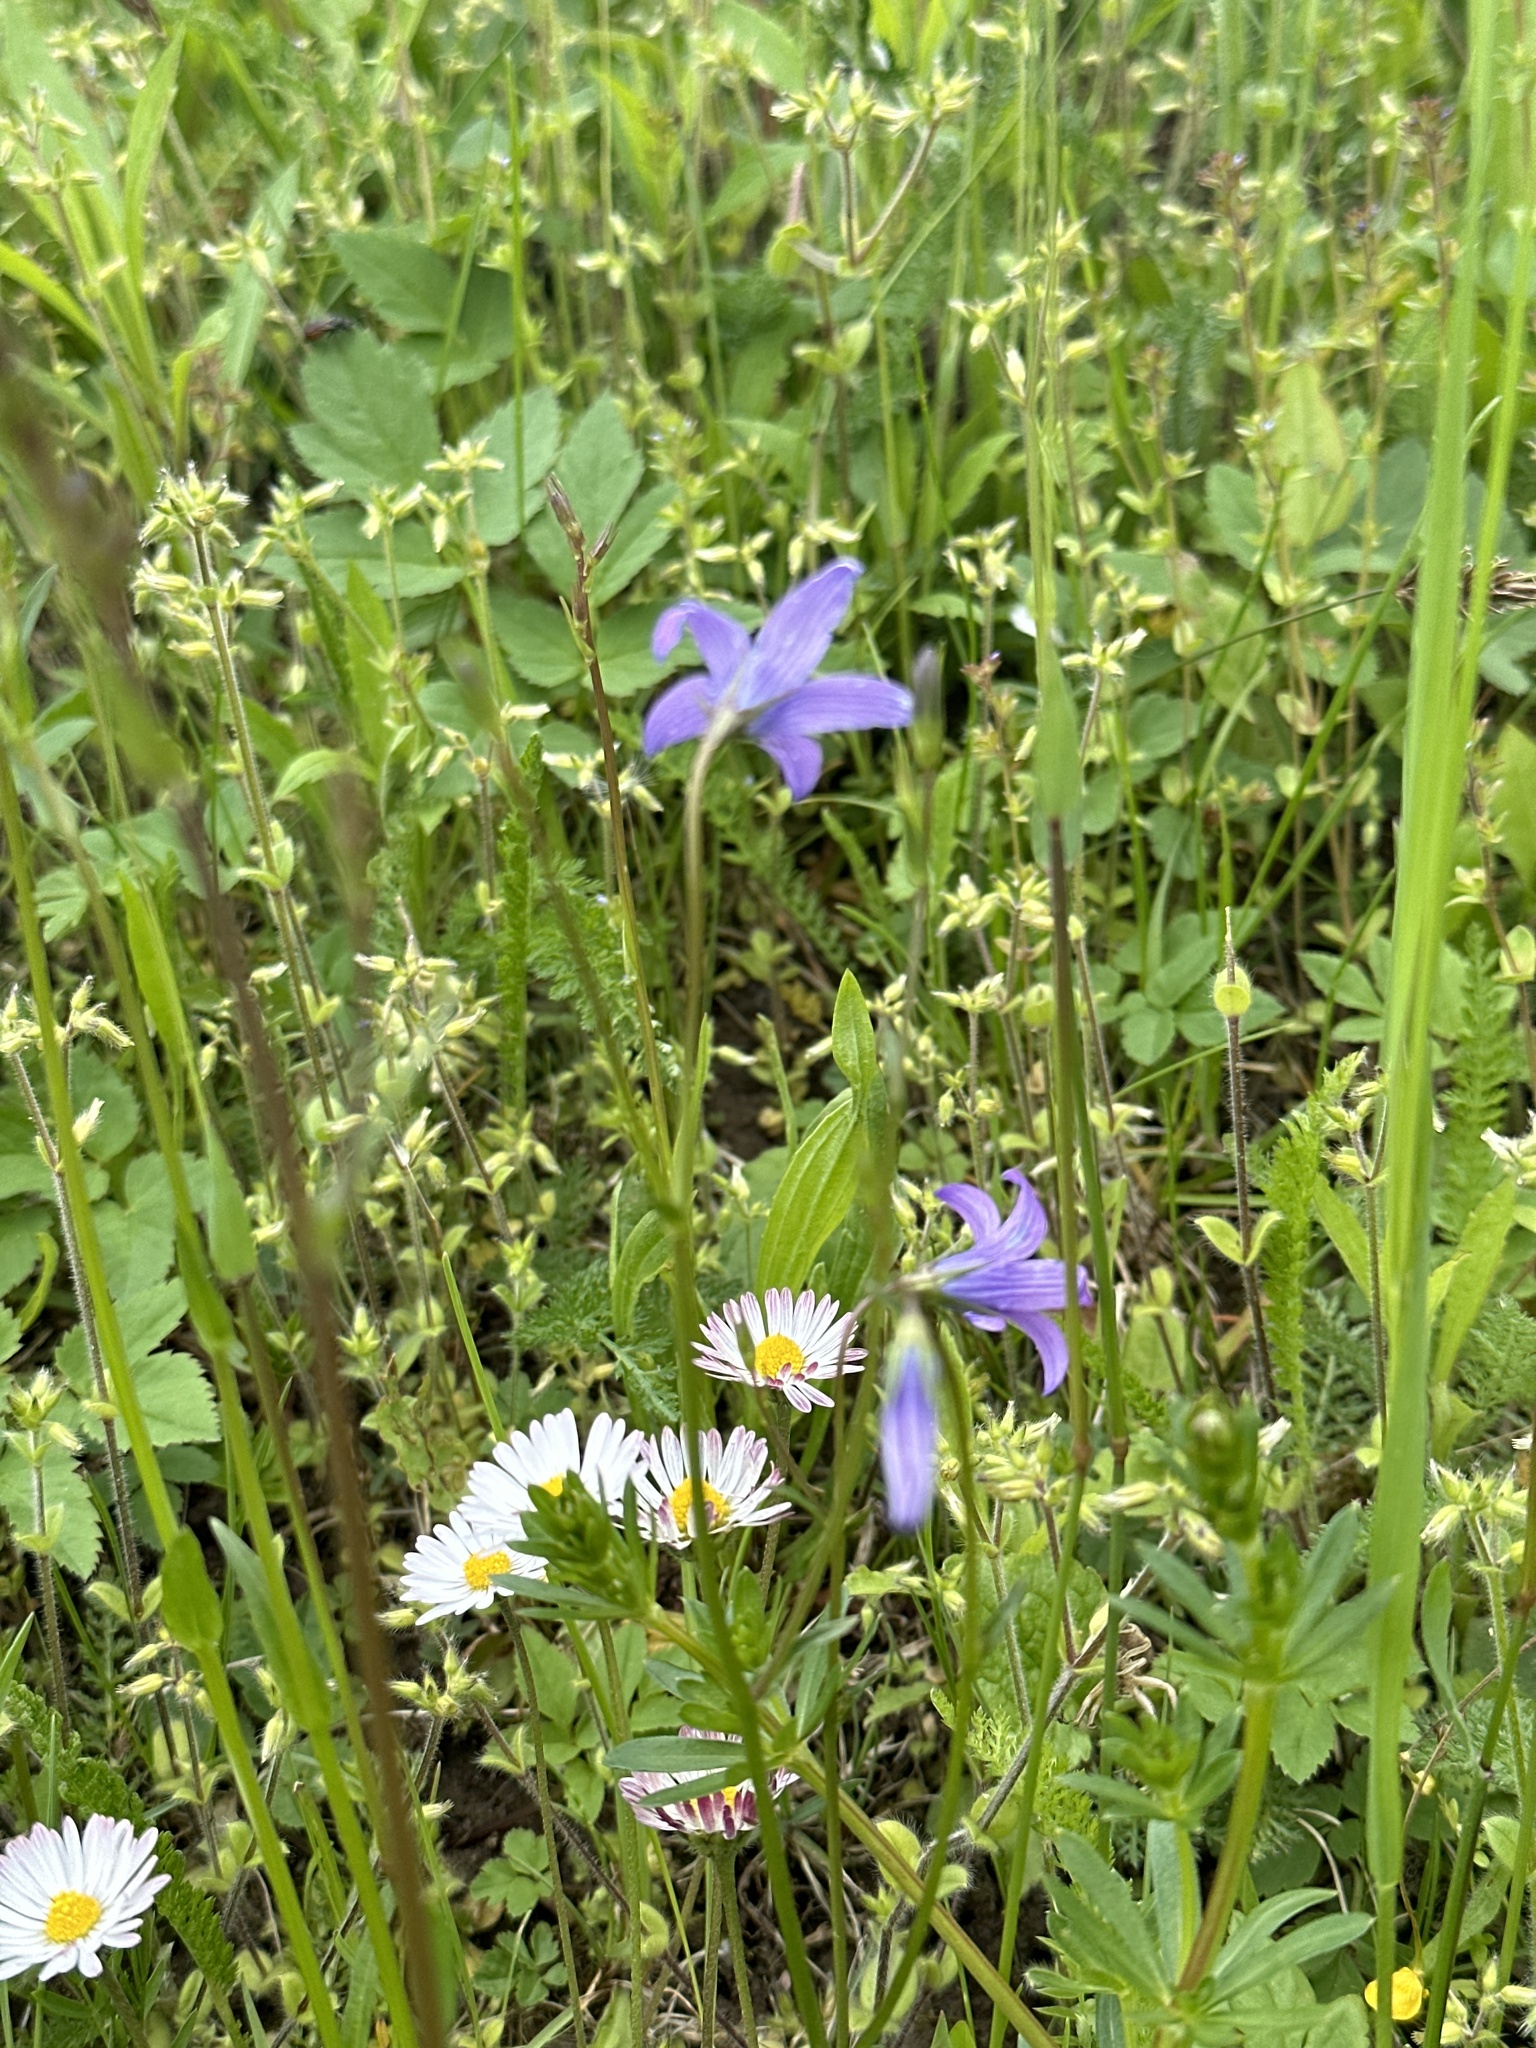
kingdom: Plantae
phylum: Tracheophyta
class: Magnoliopsida
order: Asterales
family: Campanulaceae
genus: Campanula
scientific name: Campanula patula
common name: Spreading bellflower
